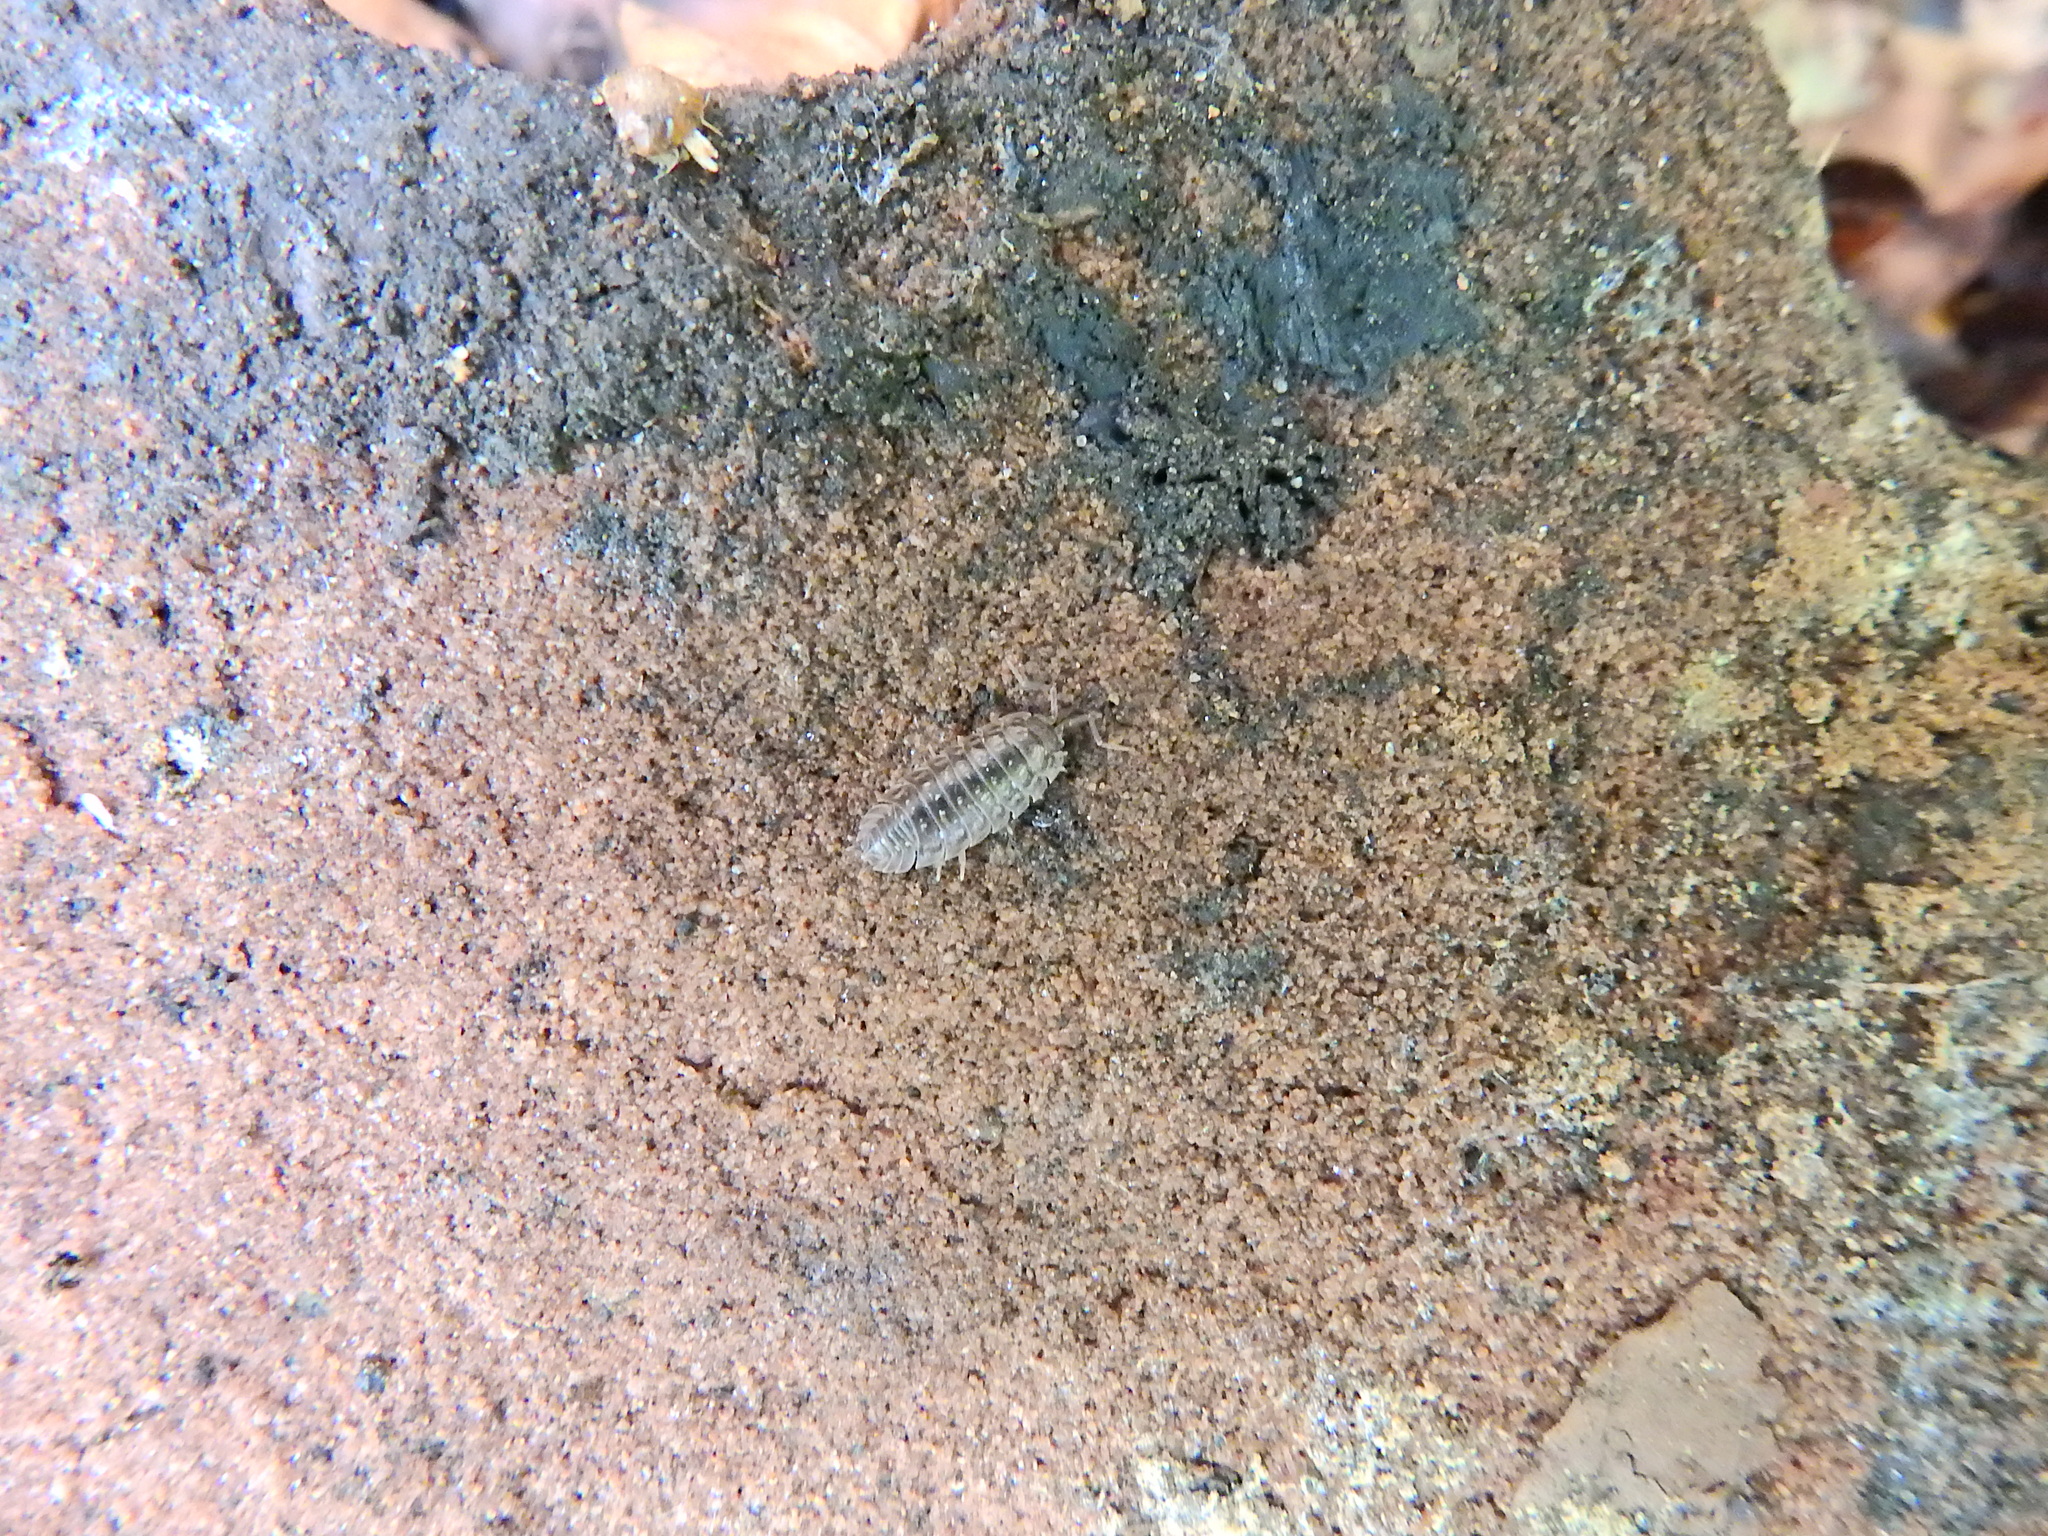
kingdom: Animalia
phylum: Arthropoda
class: Malacostraca
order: Isopoda
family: Oniscidae
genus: Oniscus
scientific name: Oniscus asellus
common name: Common shiny woodlouse
